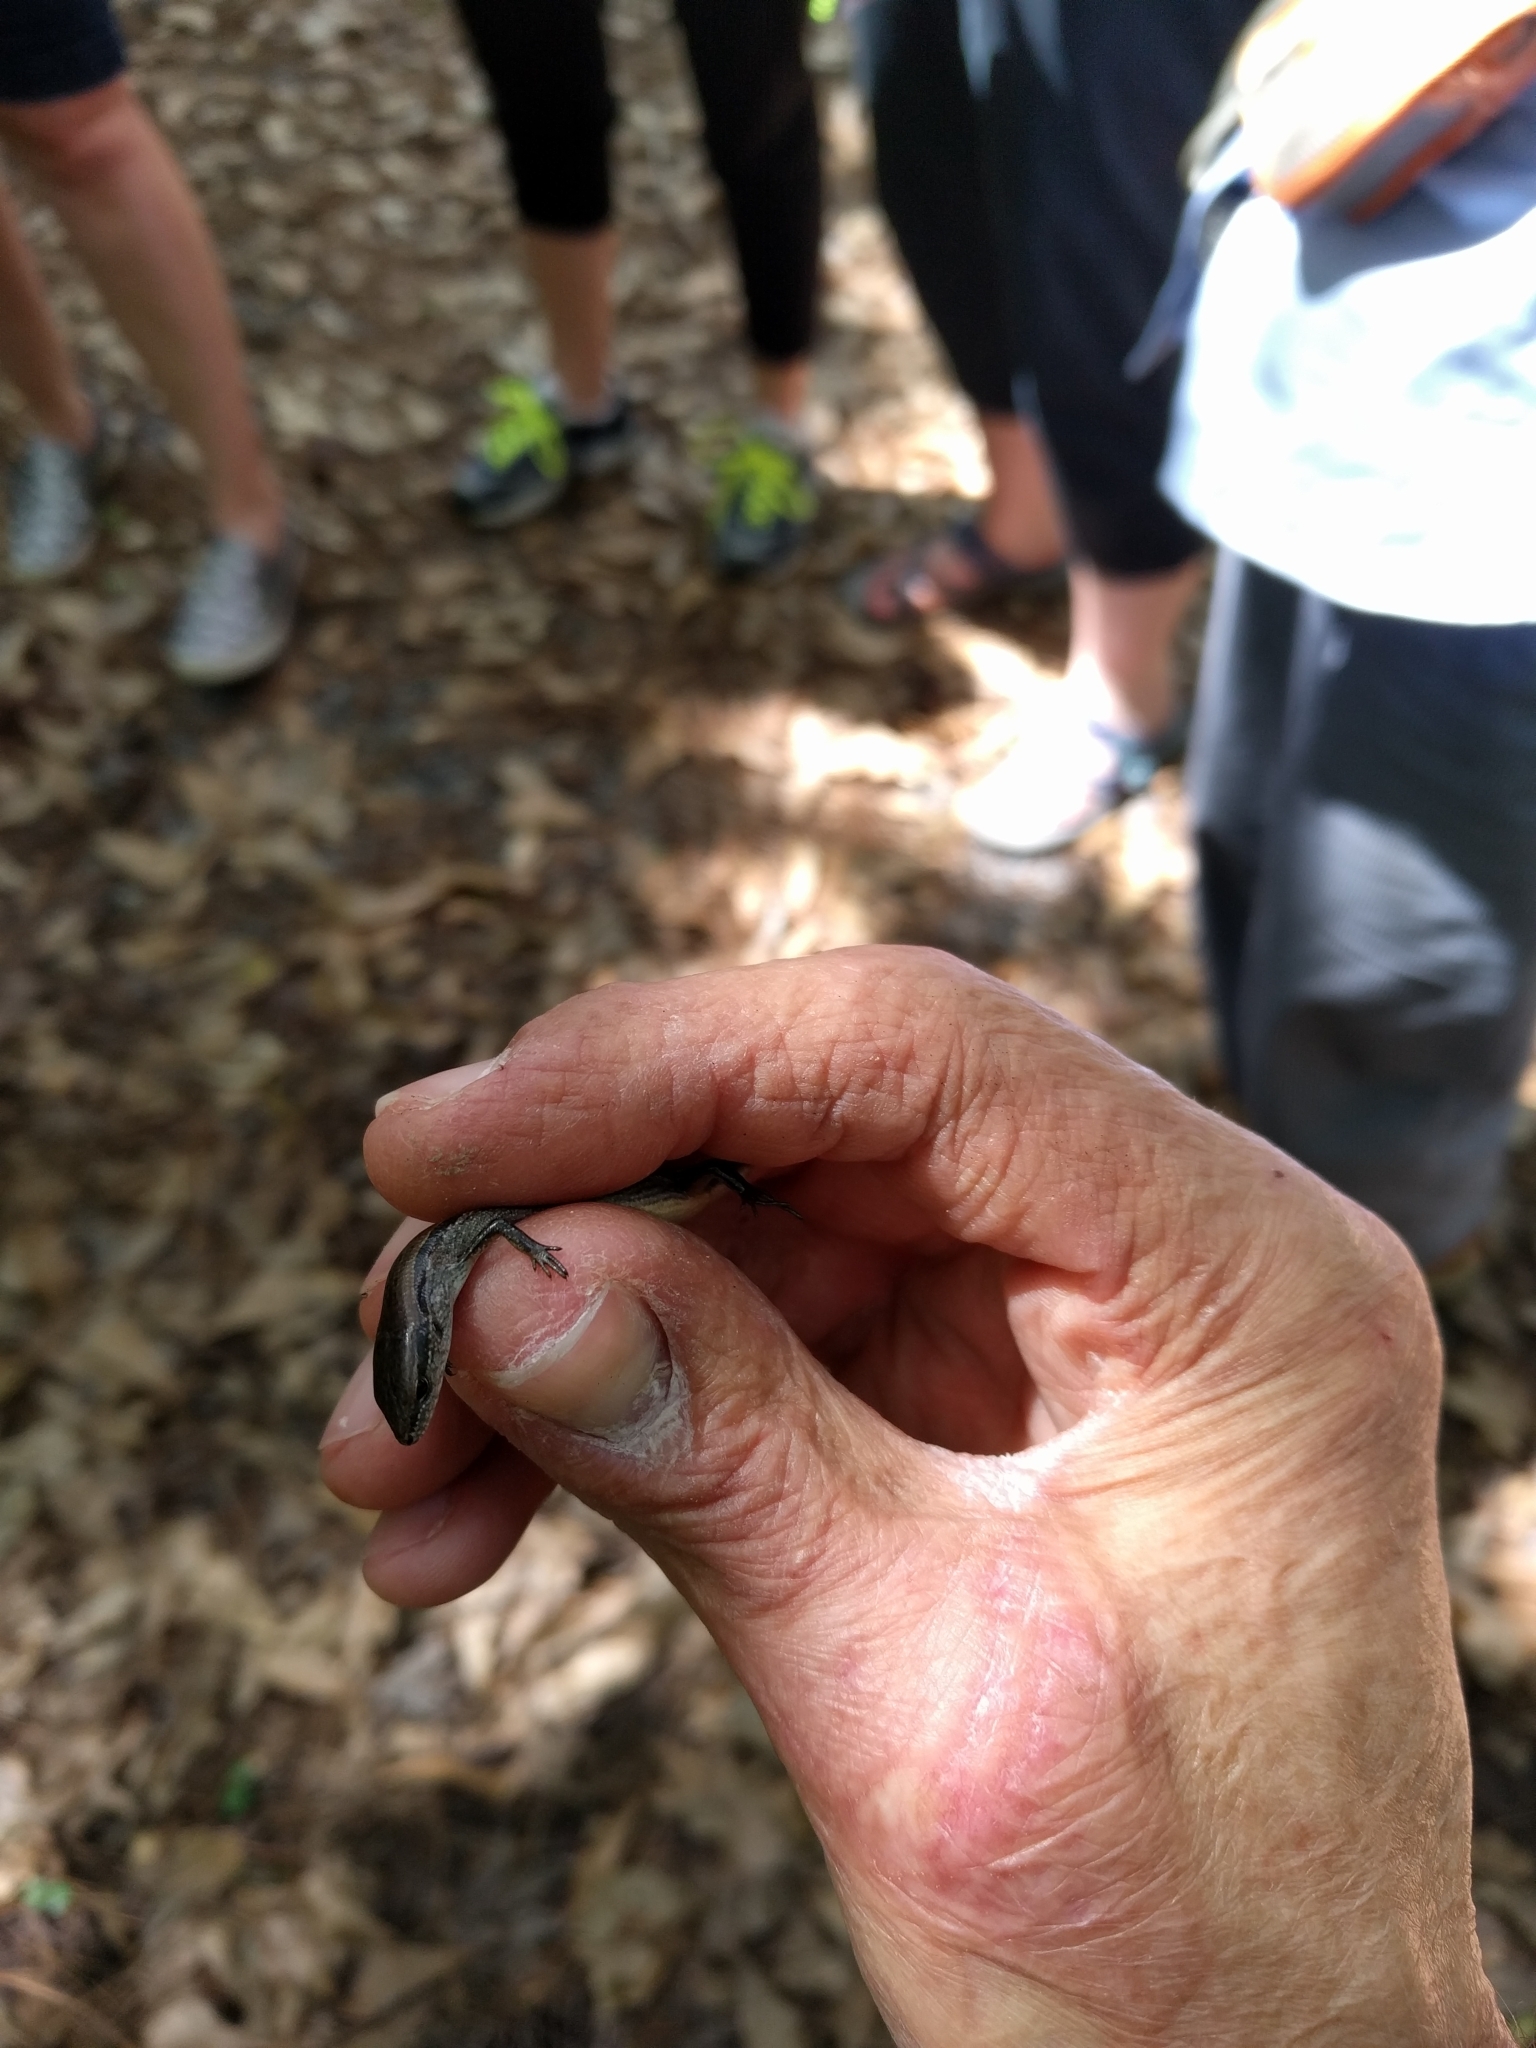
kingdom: Animalia
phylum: Chordata
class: Squamata
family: Scincidae
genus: Scincella
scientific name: Scincella lateralis
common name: Ground skink
